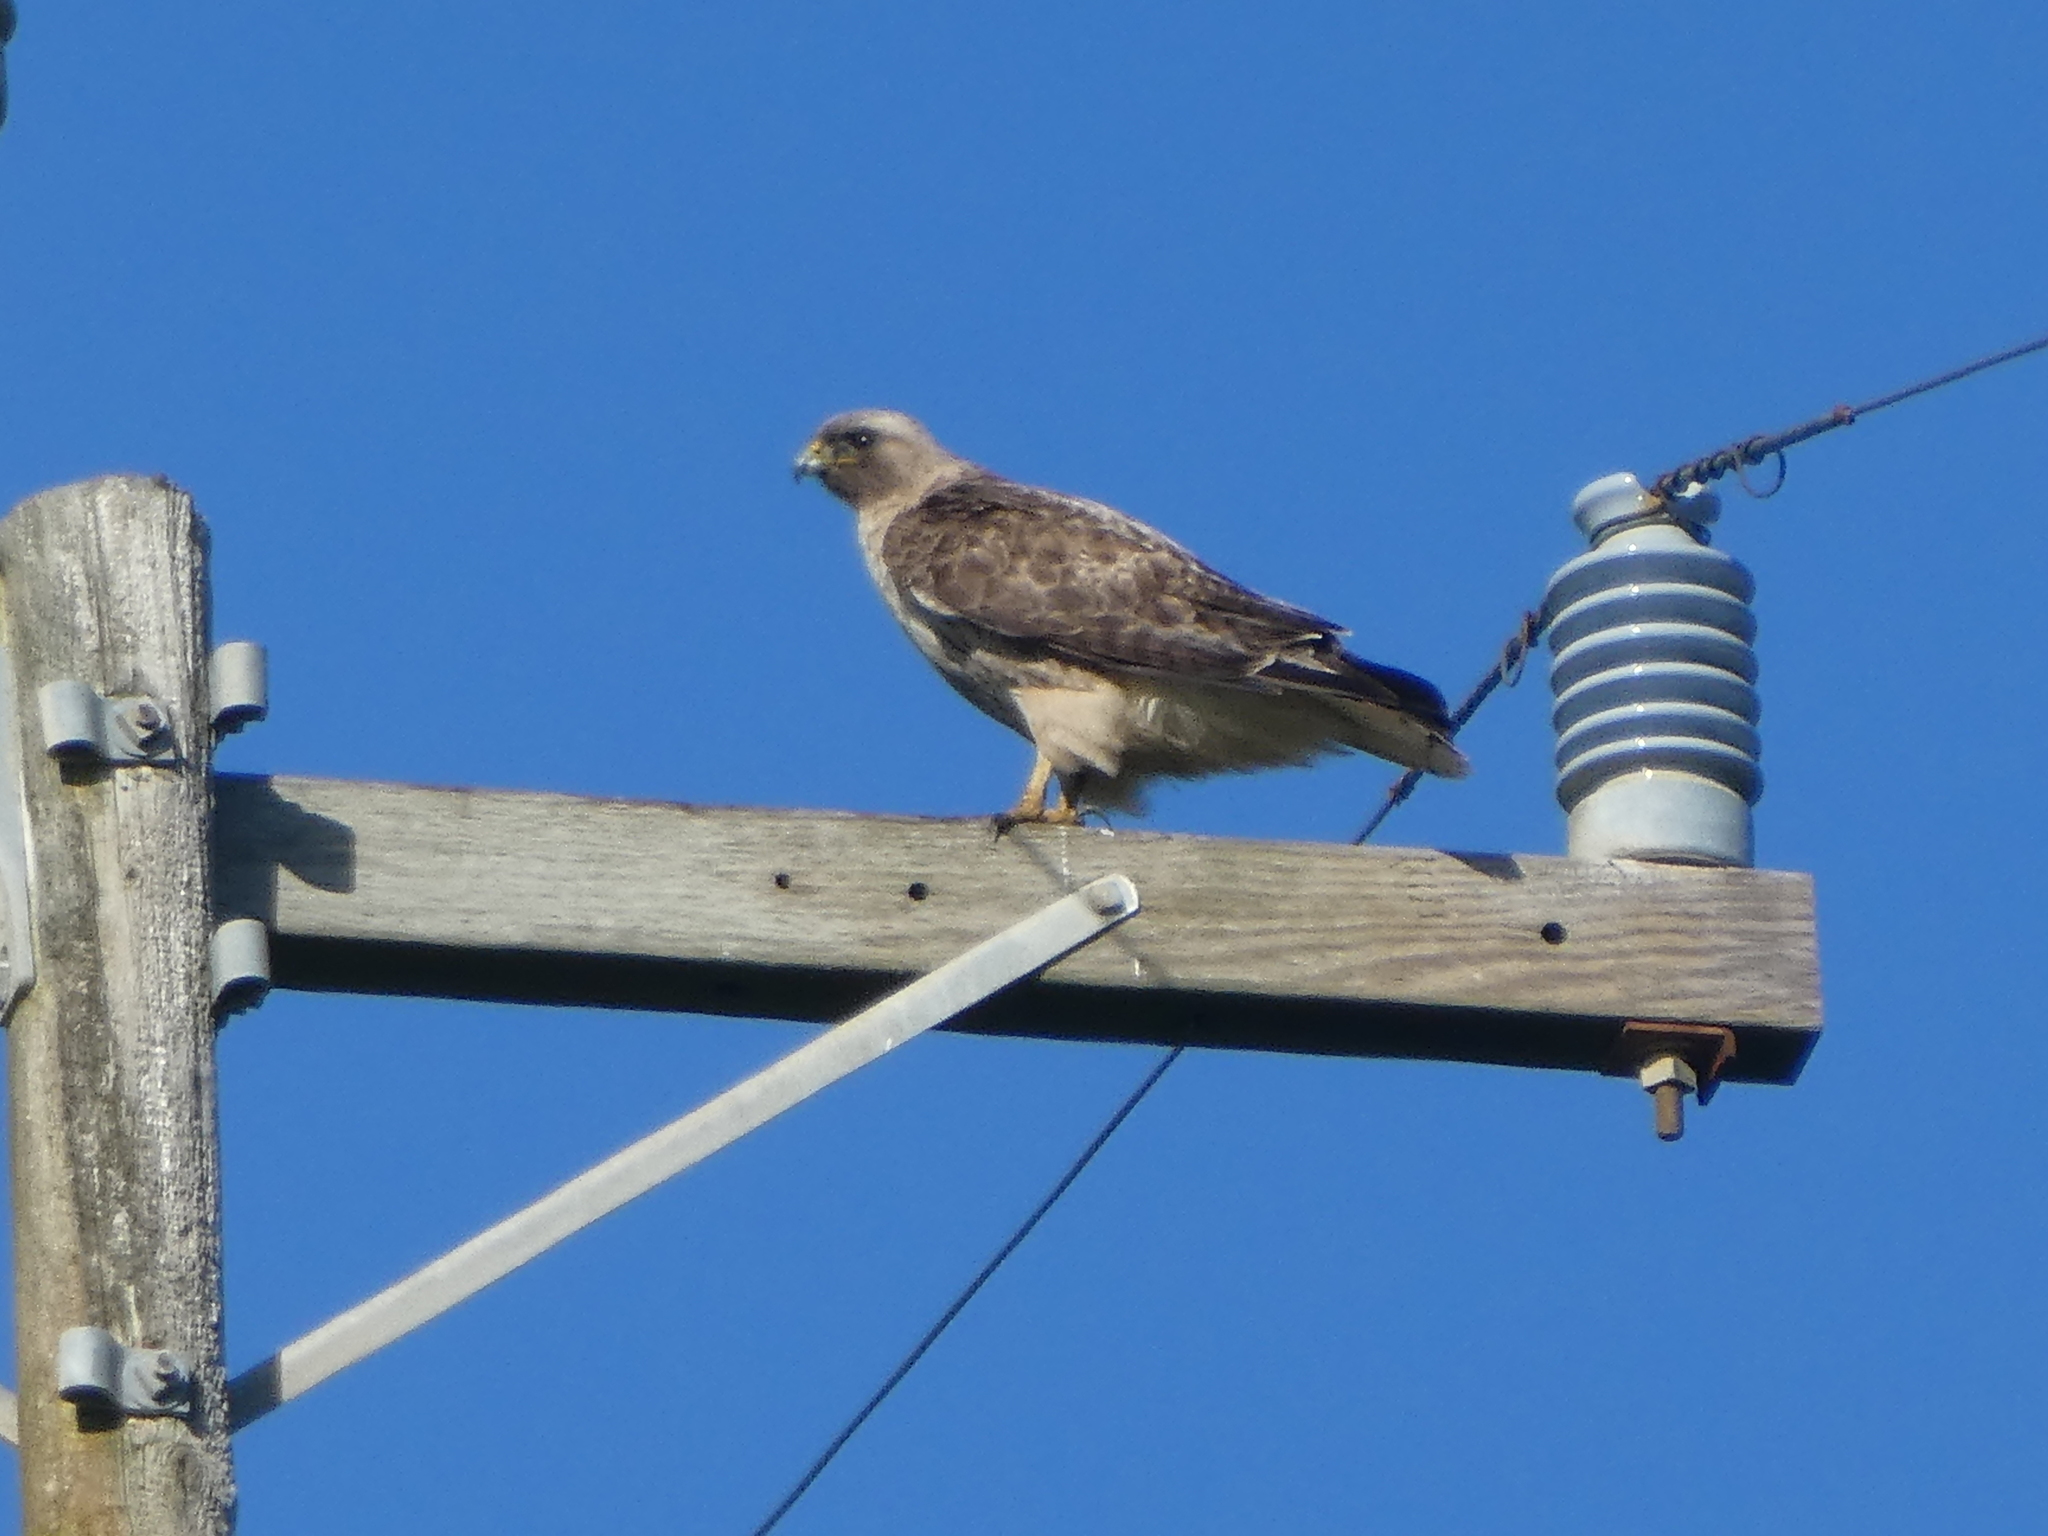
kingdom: Animalia
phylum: Chordata
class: Aves
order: Accipitriformes
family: Accipitridae
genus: Buteo
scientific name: Buteo jamaicensis
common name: Red-tailed hawk
